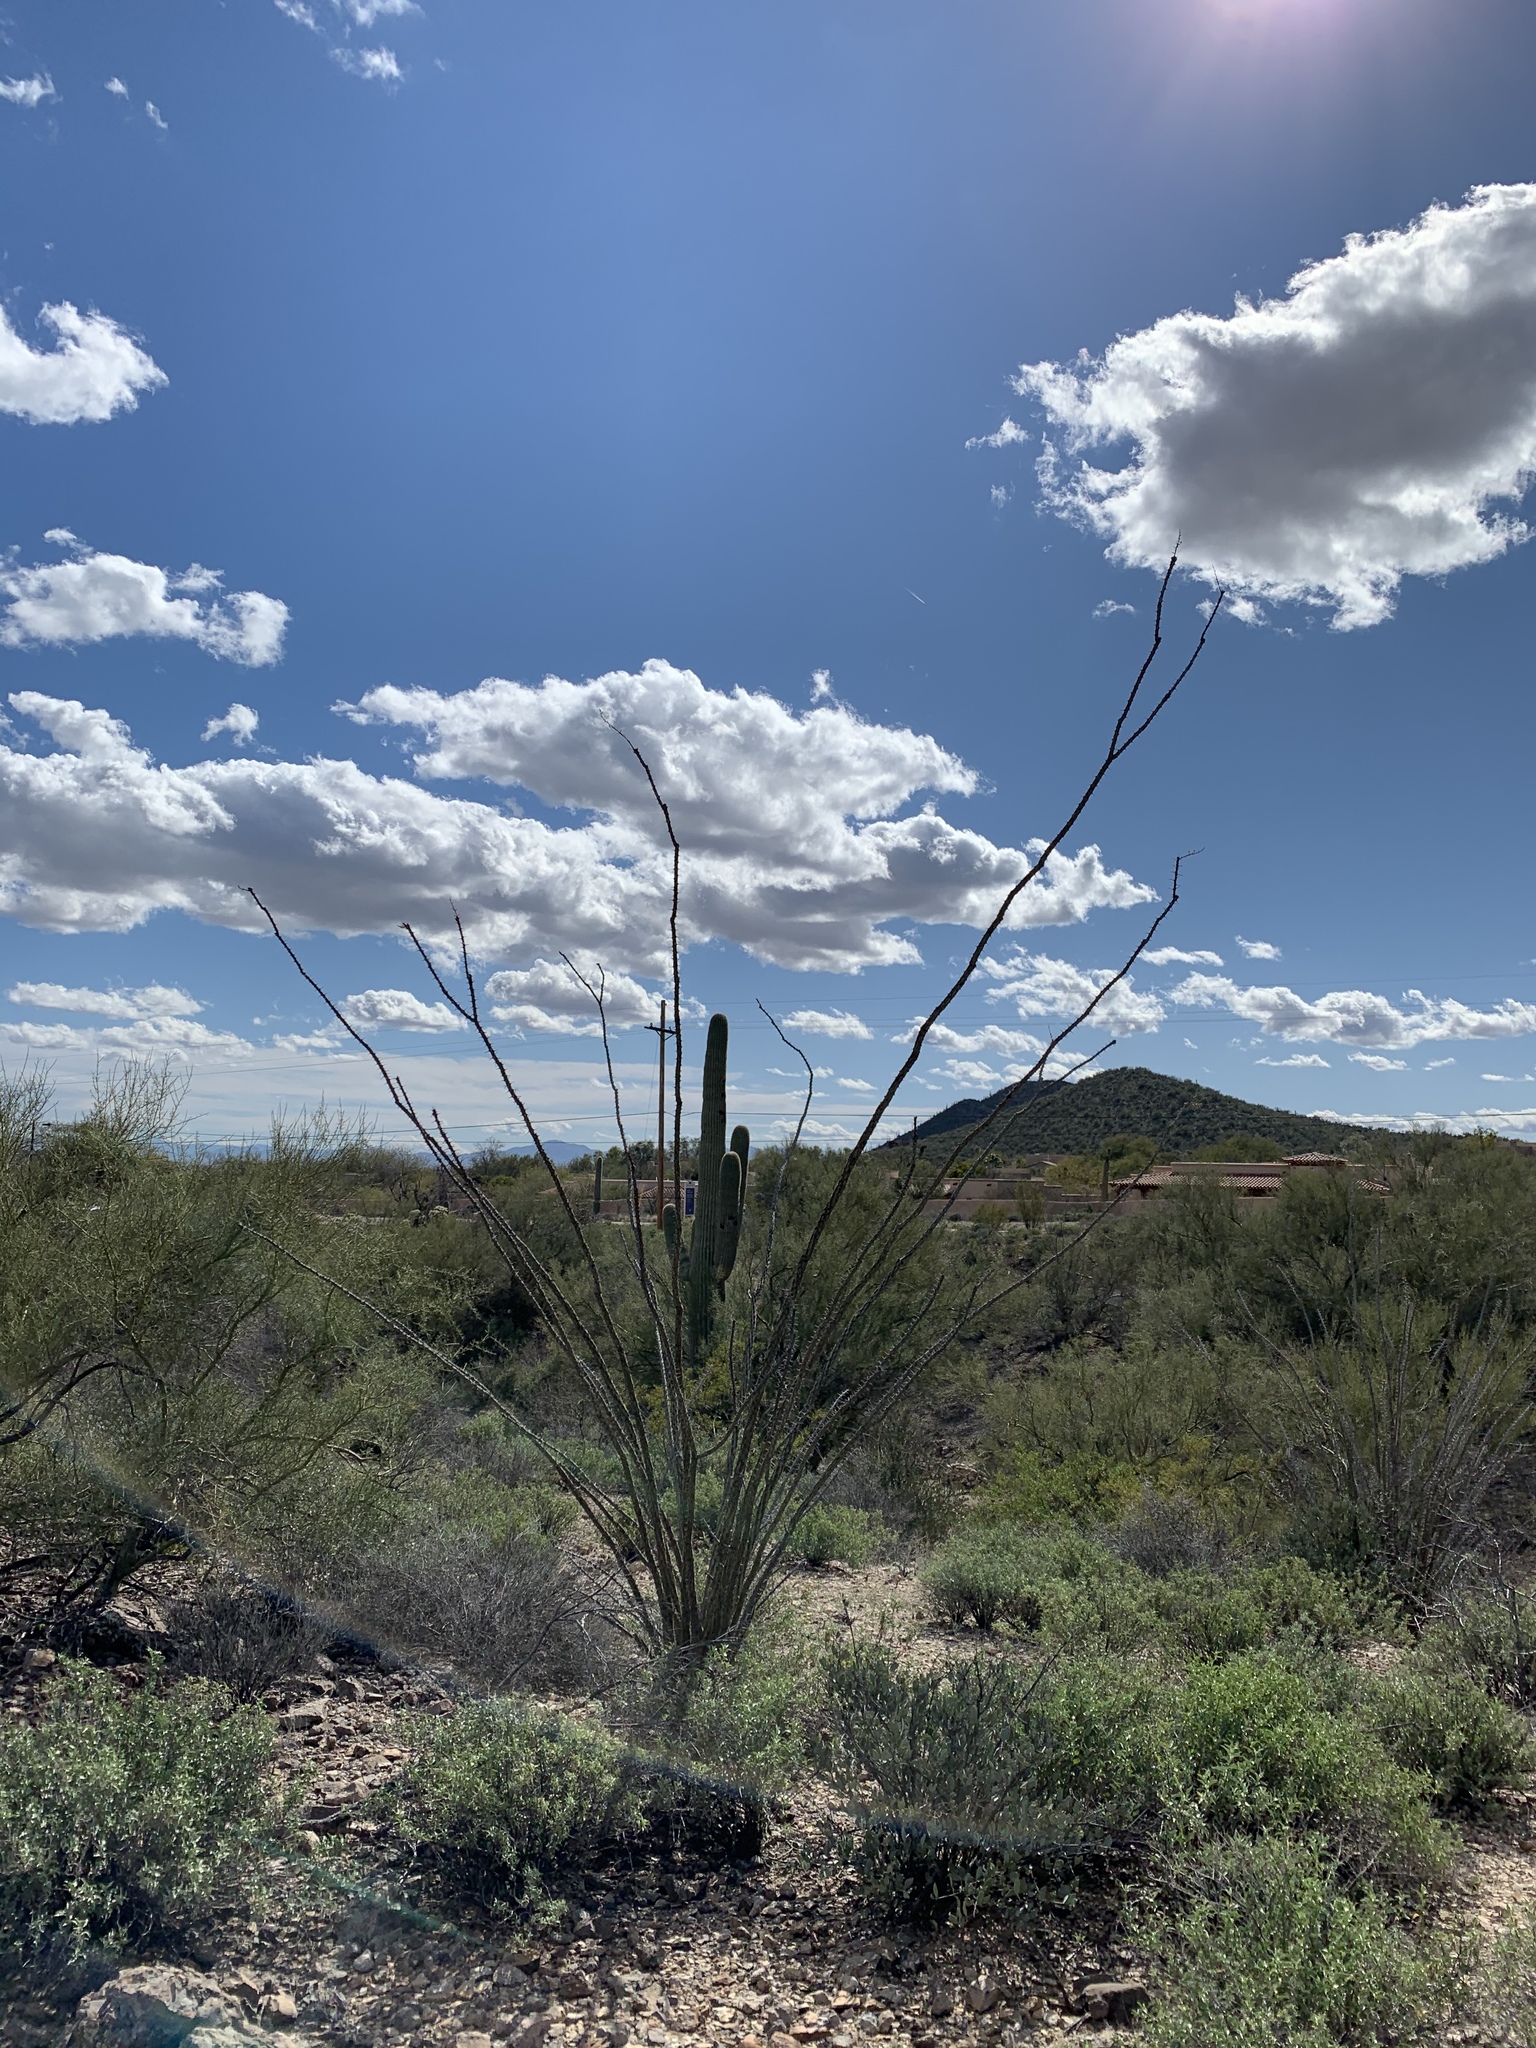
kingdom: Plantae
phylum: Tracheophyta
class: Magnoliopsida
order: Ericales
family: Fouquieriaceae
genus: Fouquieria
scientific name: Fouquieria splendens
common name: Vine-cactus
